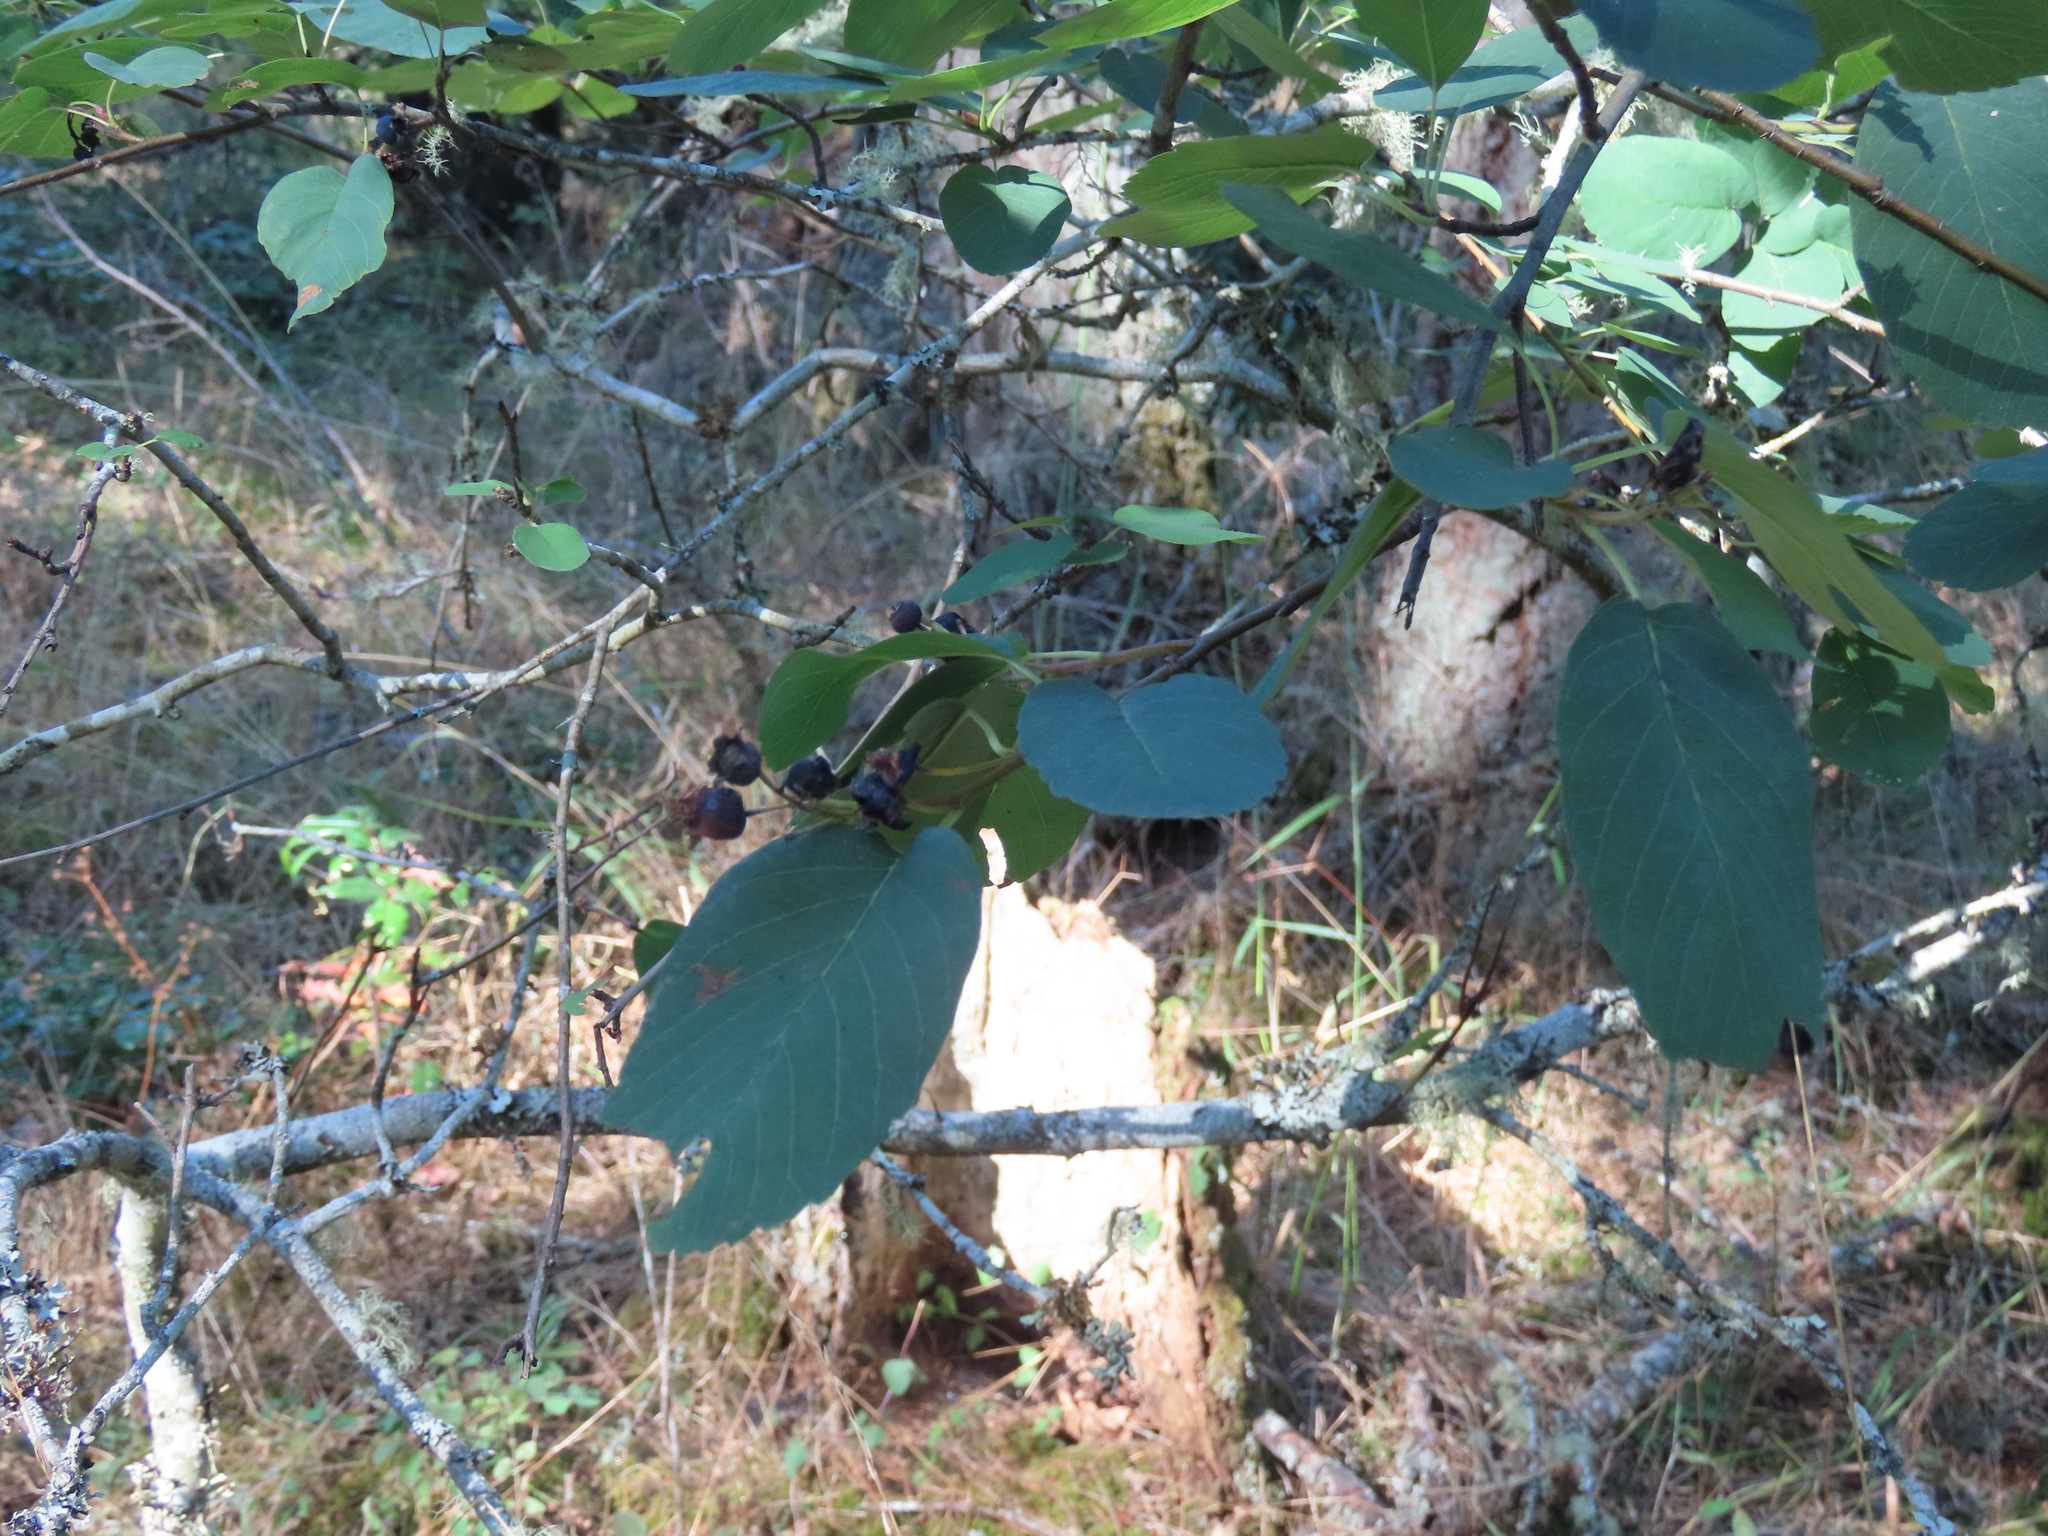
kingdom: Plantae
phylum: Tracheophyta
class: Magnoliopsida
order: Rosales
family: Rosaceae
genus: Amelanchier
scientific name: Amelanchier alnifolia
